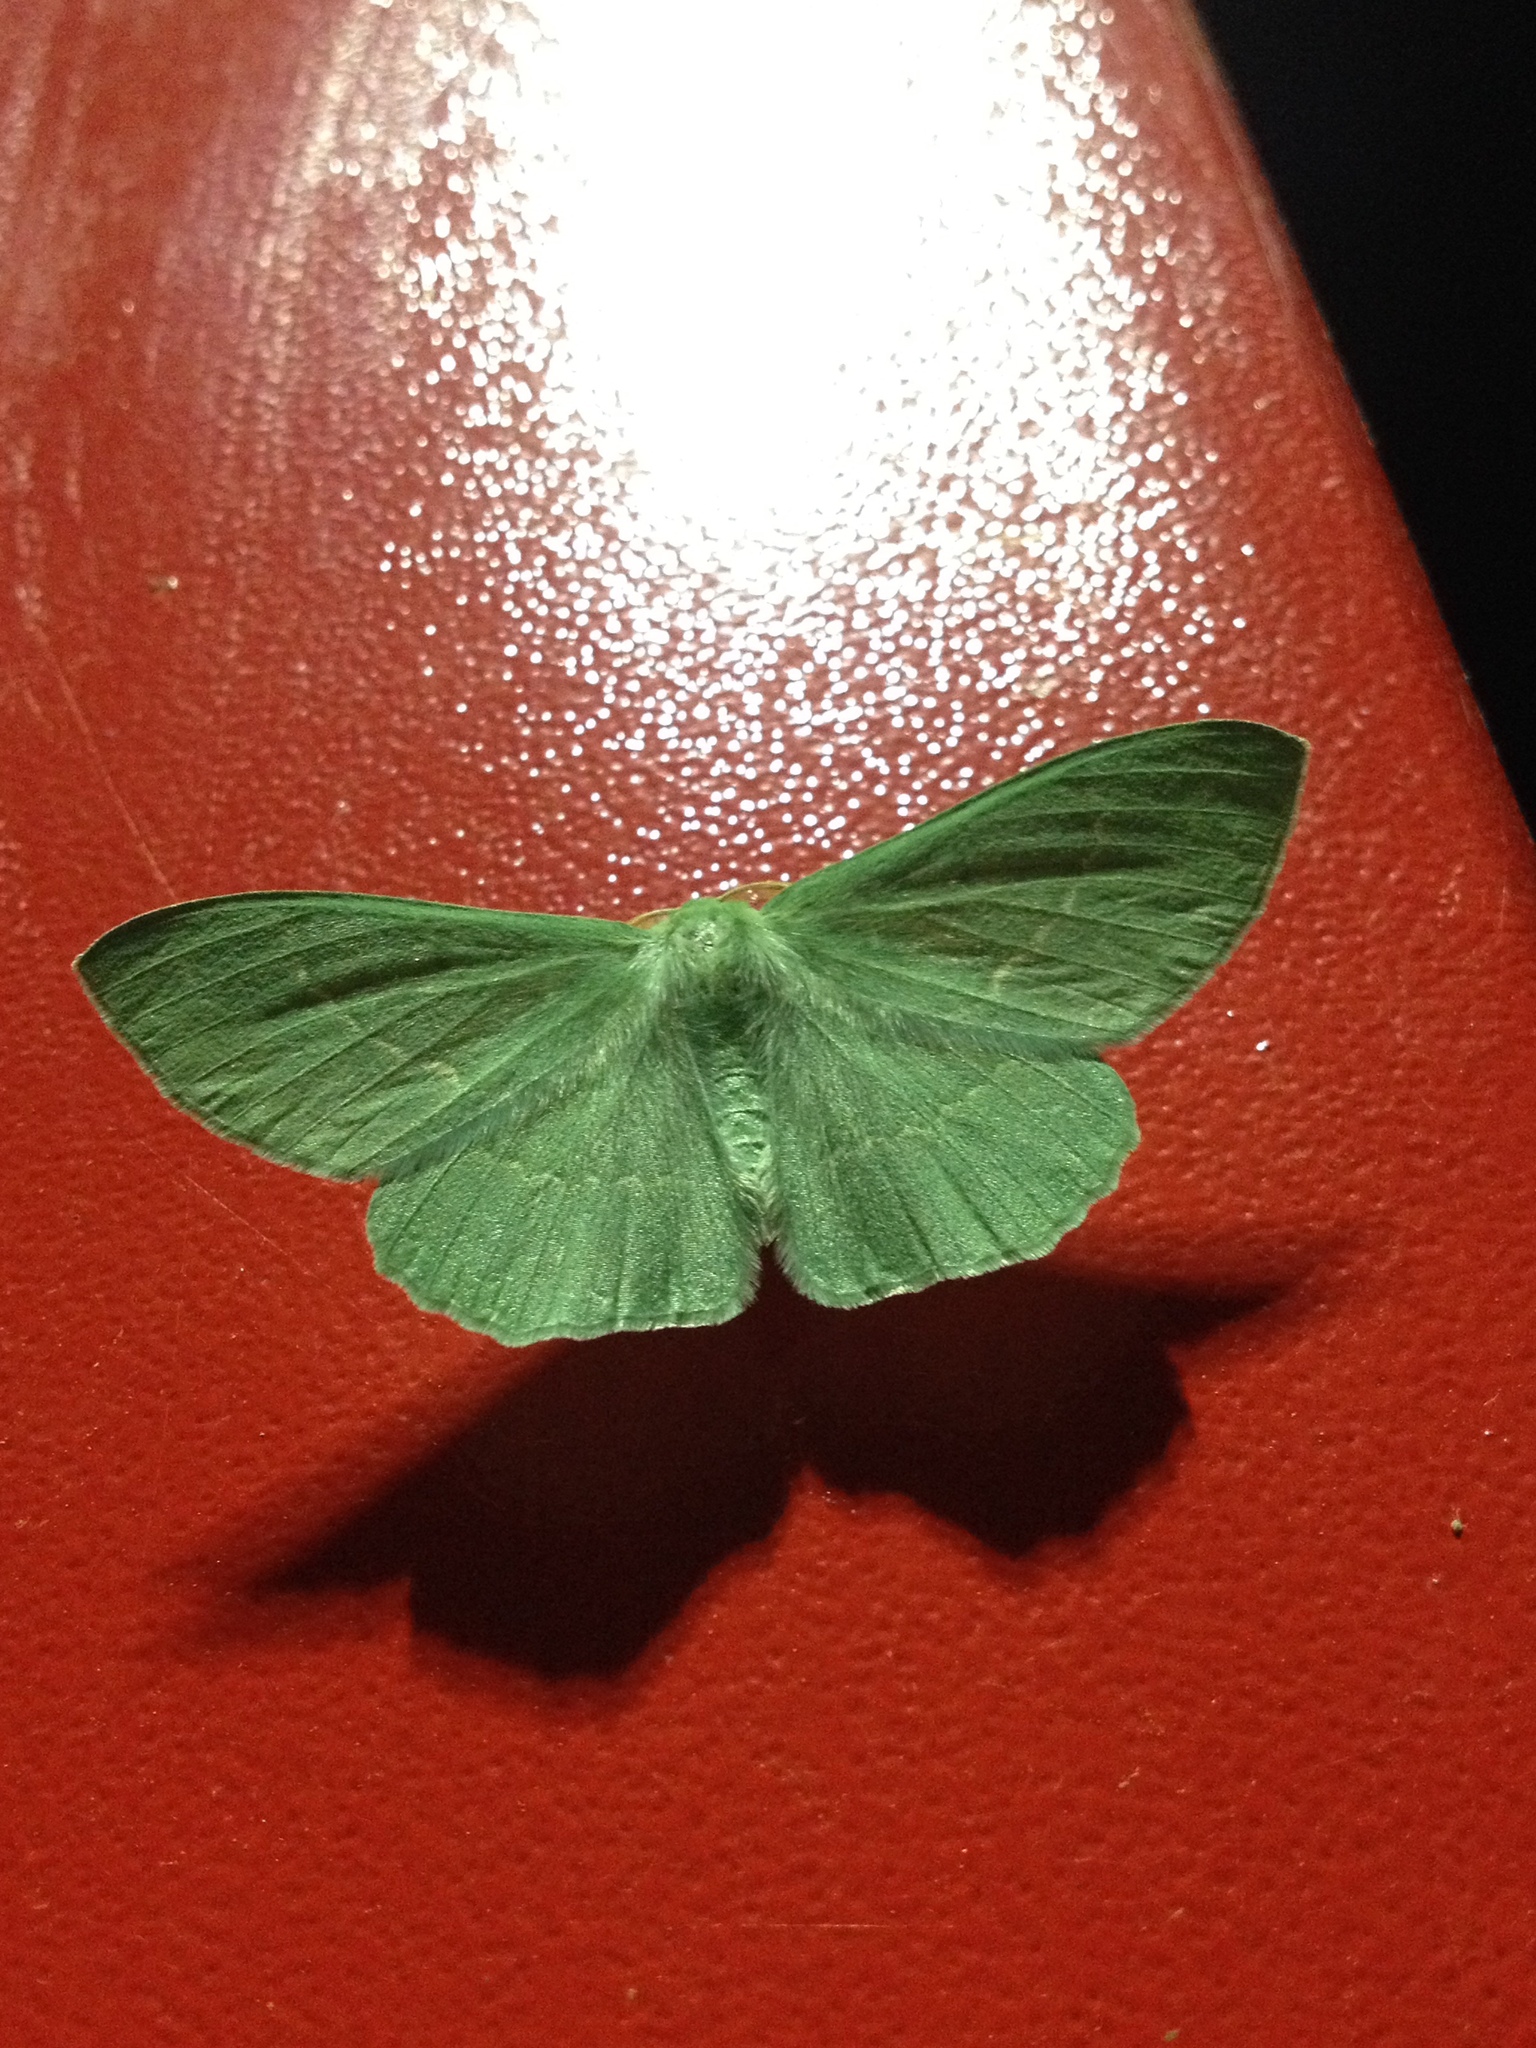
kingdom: Animalia
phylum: Arthropoda
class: Insecta
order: Lepidoptera
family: Geometridae
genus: Geometra
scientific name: Geometra papilionaria
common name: Large emerald
